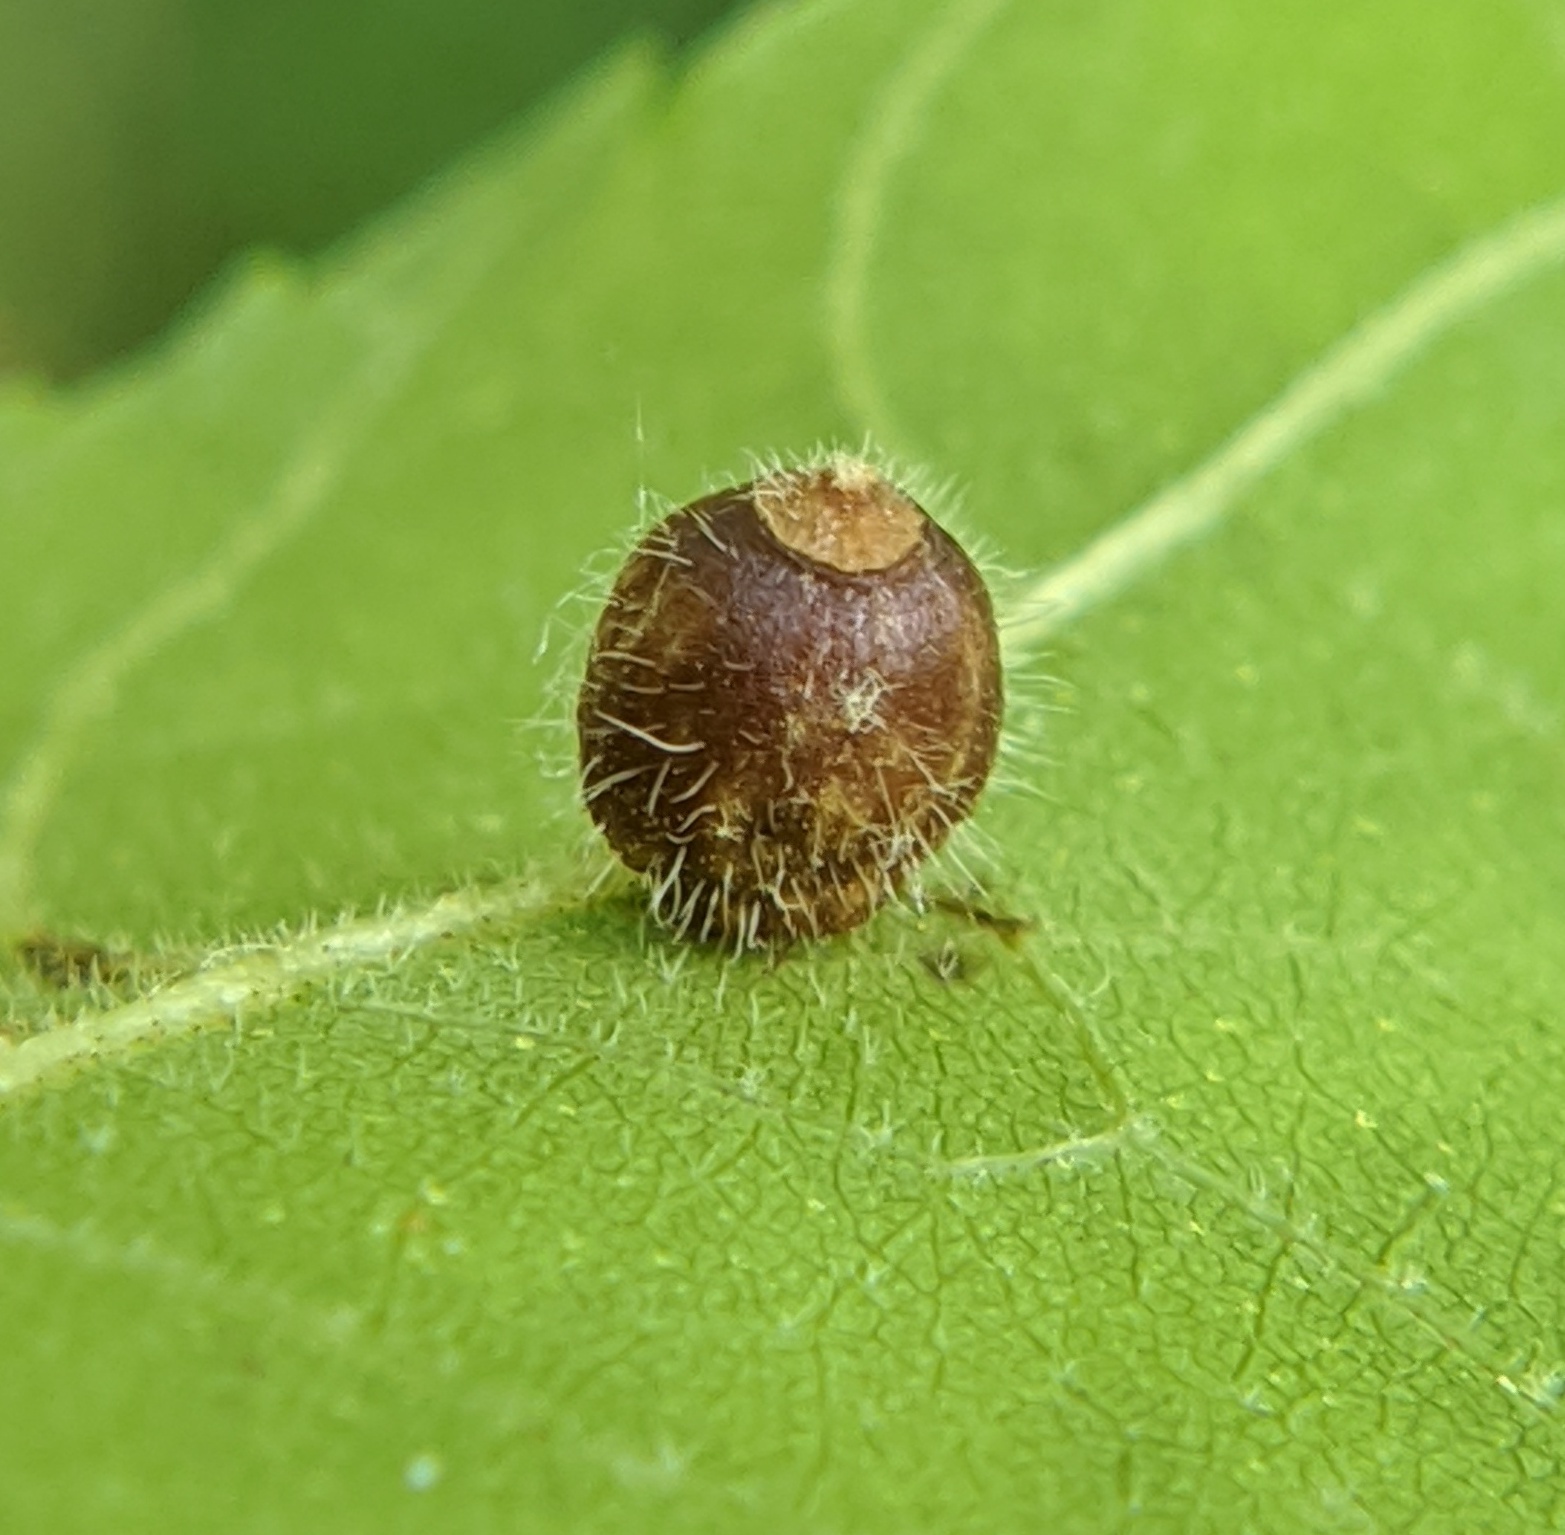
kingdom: Animalia
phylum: Arthropoda
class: Insecta
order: Diptera
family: Cecidomyiidae
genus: Caryomyia
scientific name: Caryomyia cilidolium
